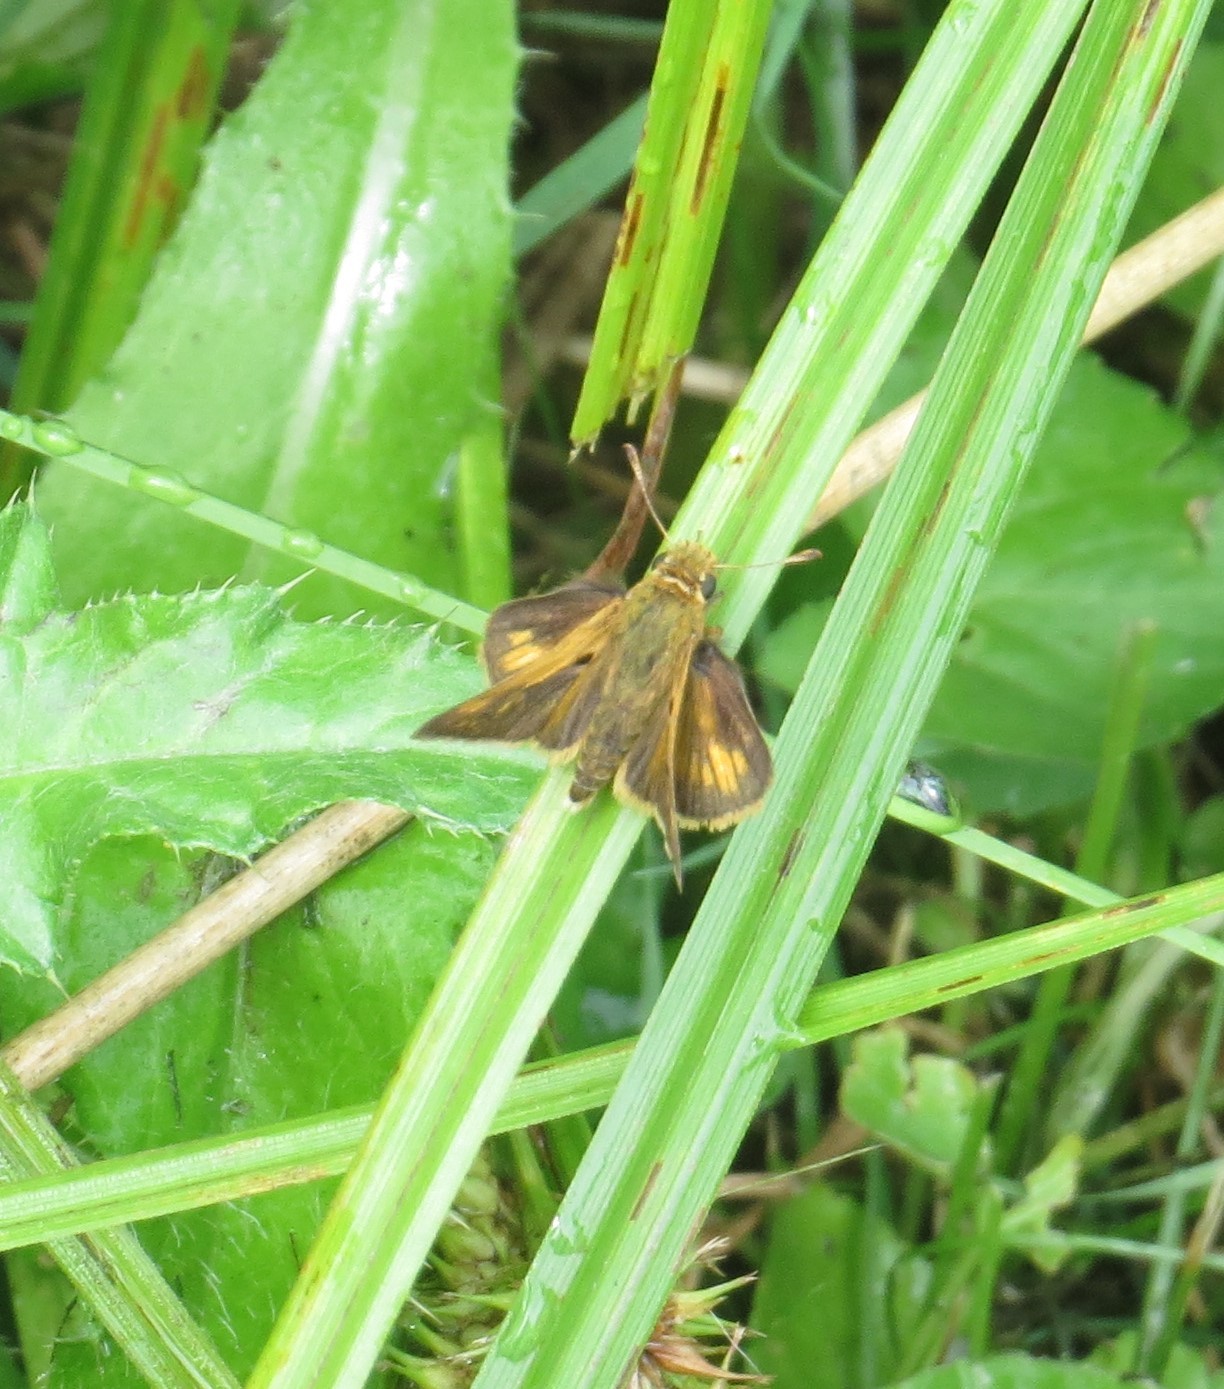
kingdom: Animalia
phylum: Arthropoda
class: Insecta
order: Lepidoptera
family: Hesperiidae
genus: Polites
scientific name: Polites coras
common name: Peck's skipper
